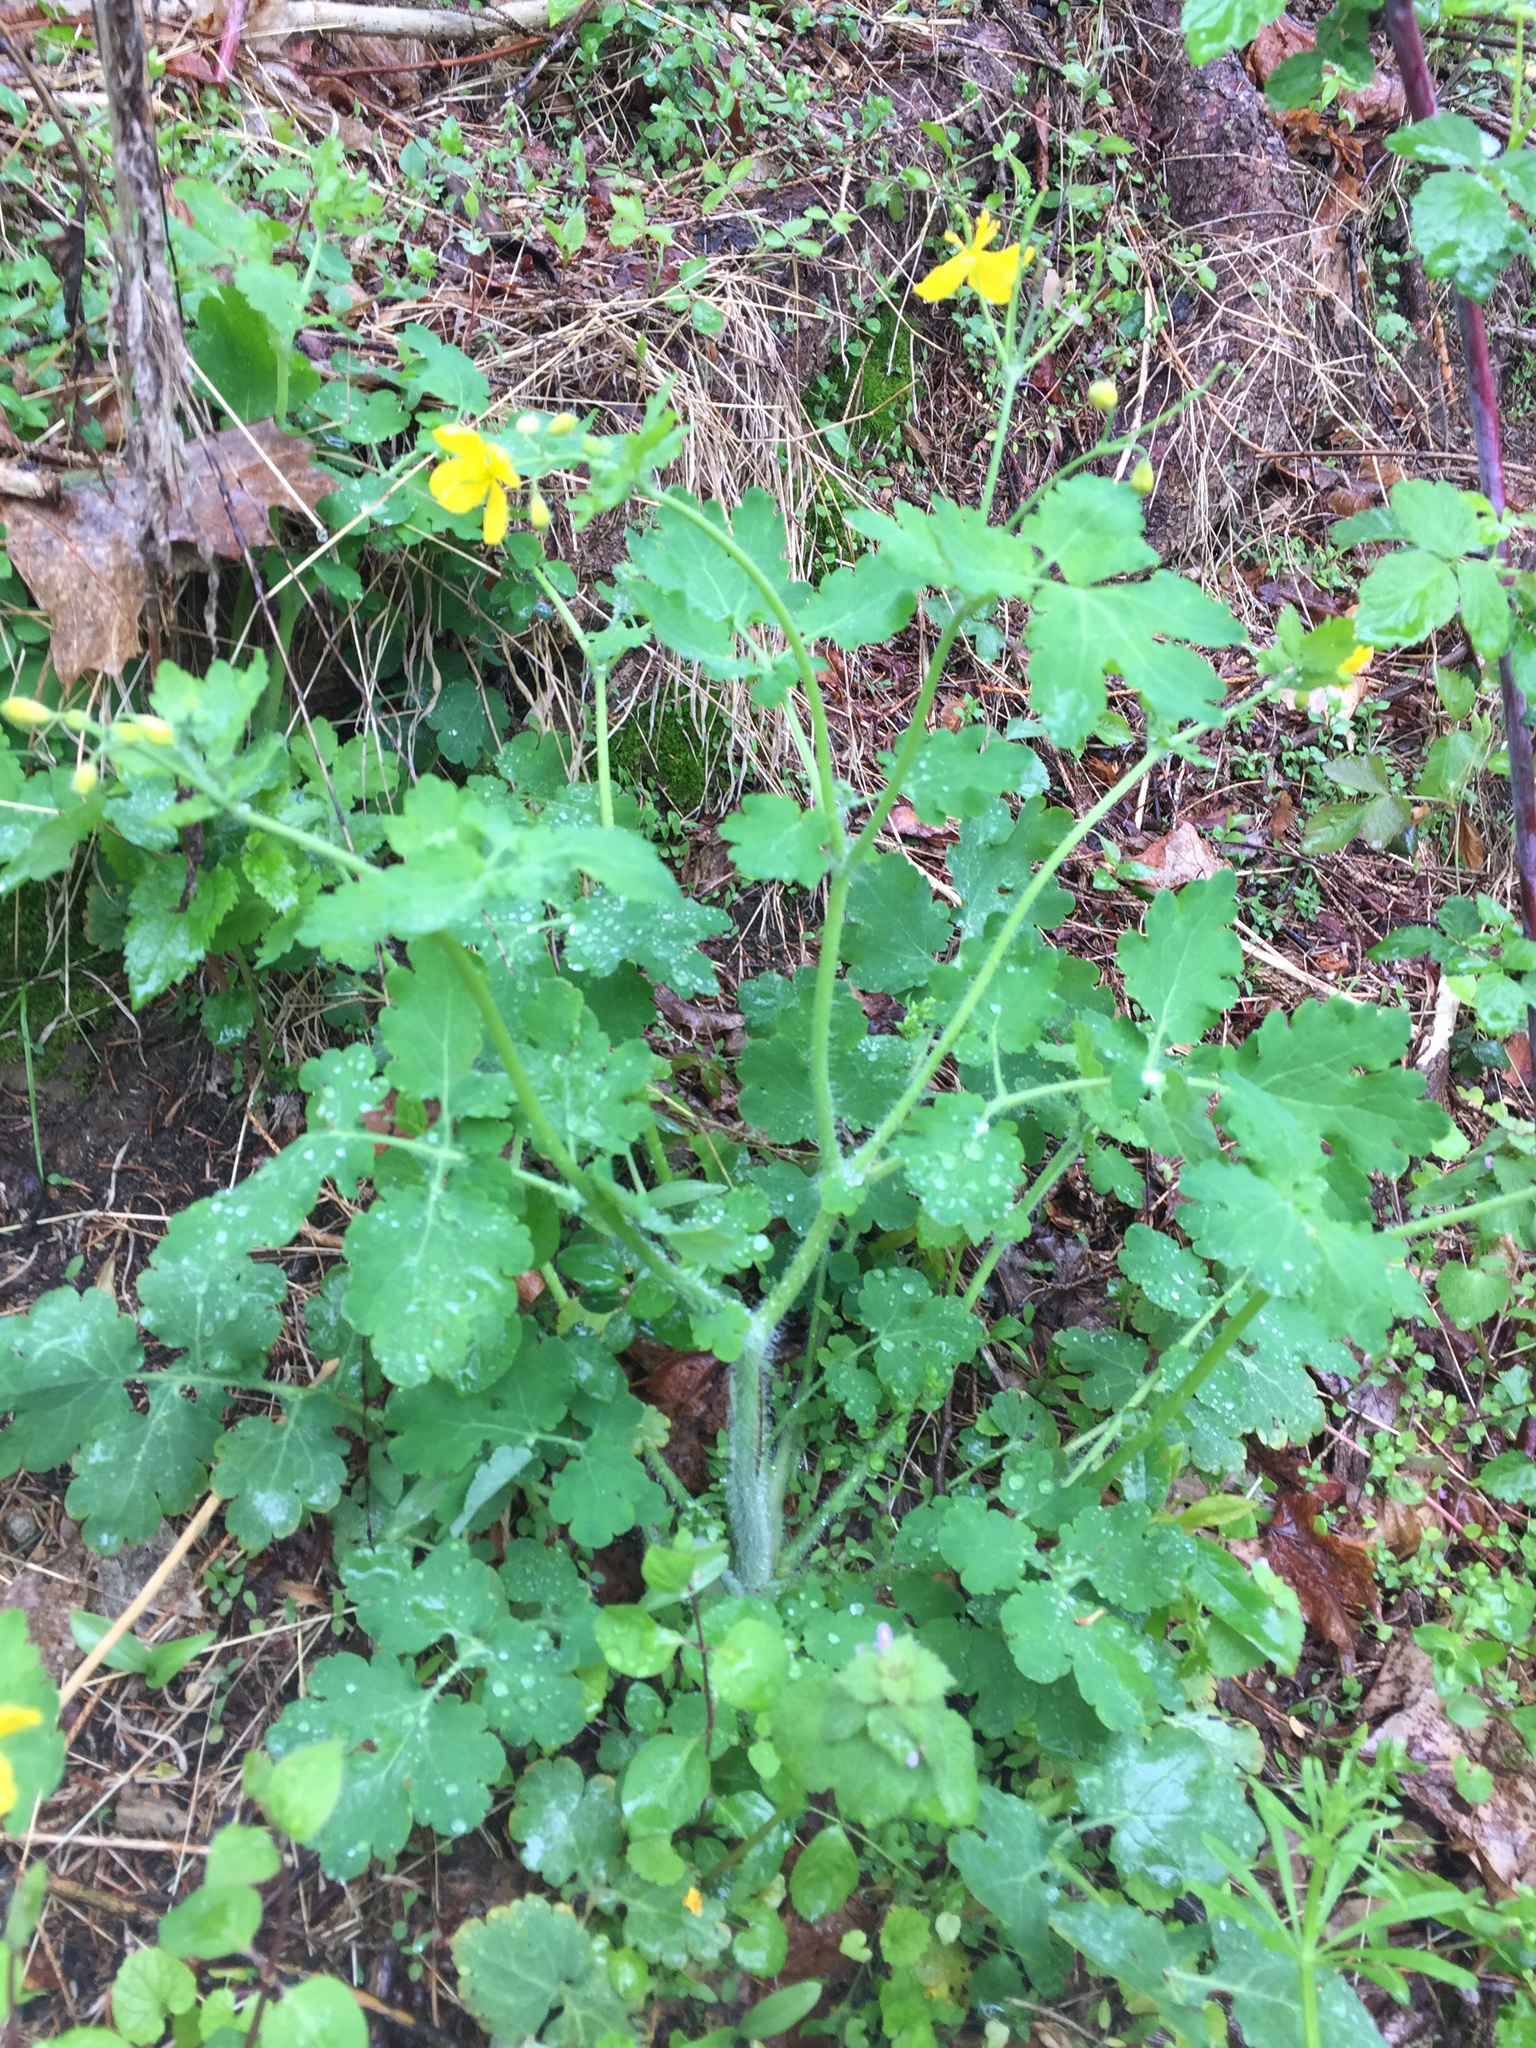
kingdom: Plantae
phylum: Tracheophyta
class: Magnoliopsida
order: Ranunculales
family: Papaveraceae
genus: Chelidonium
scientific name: Chelidonium majus
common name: Greater celandine
